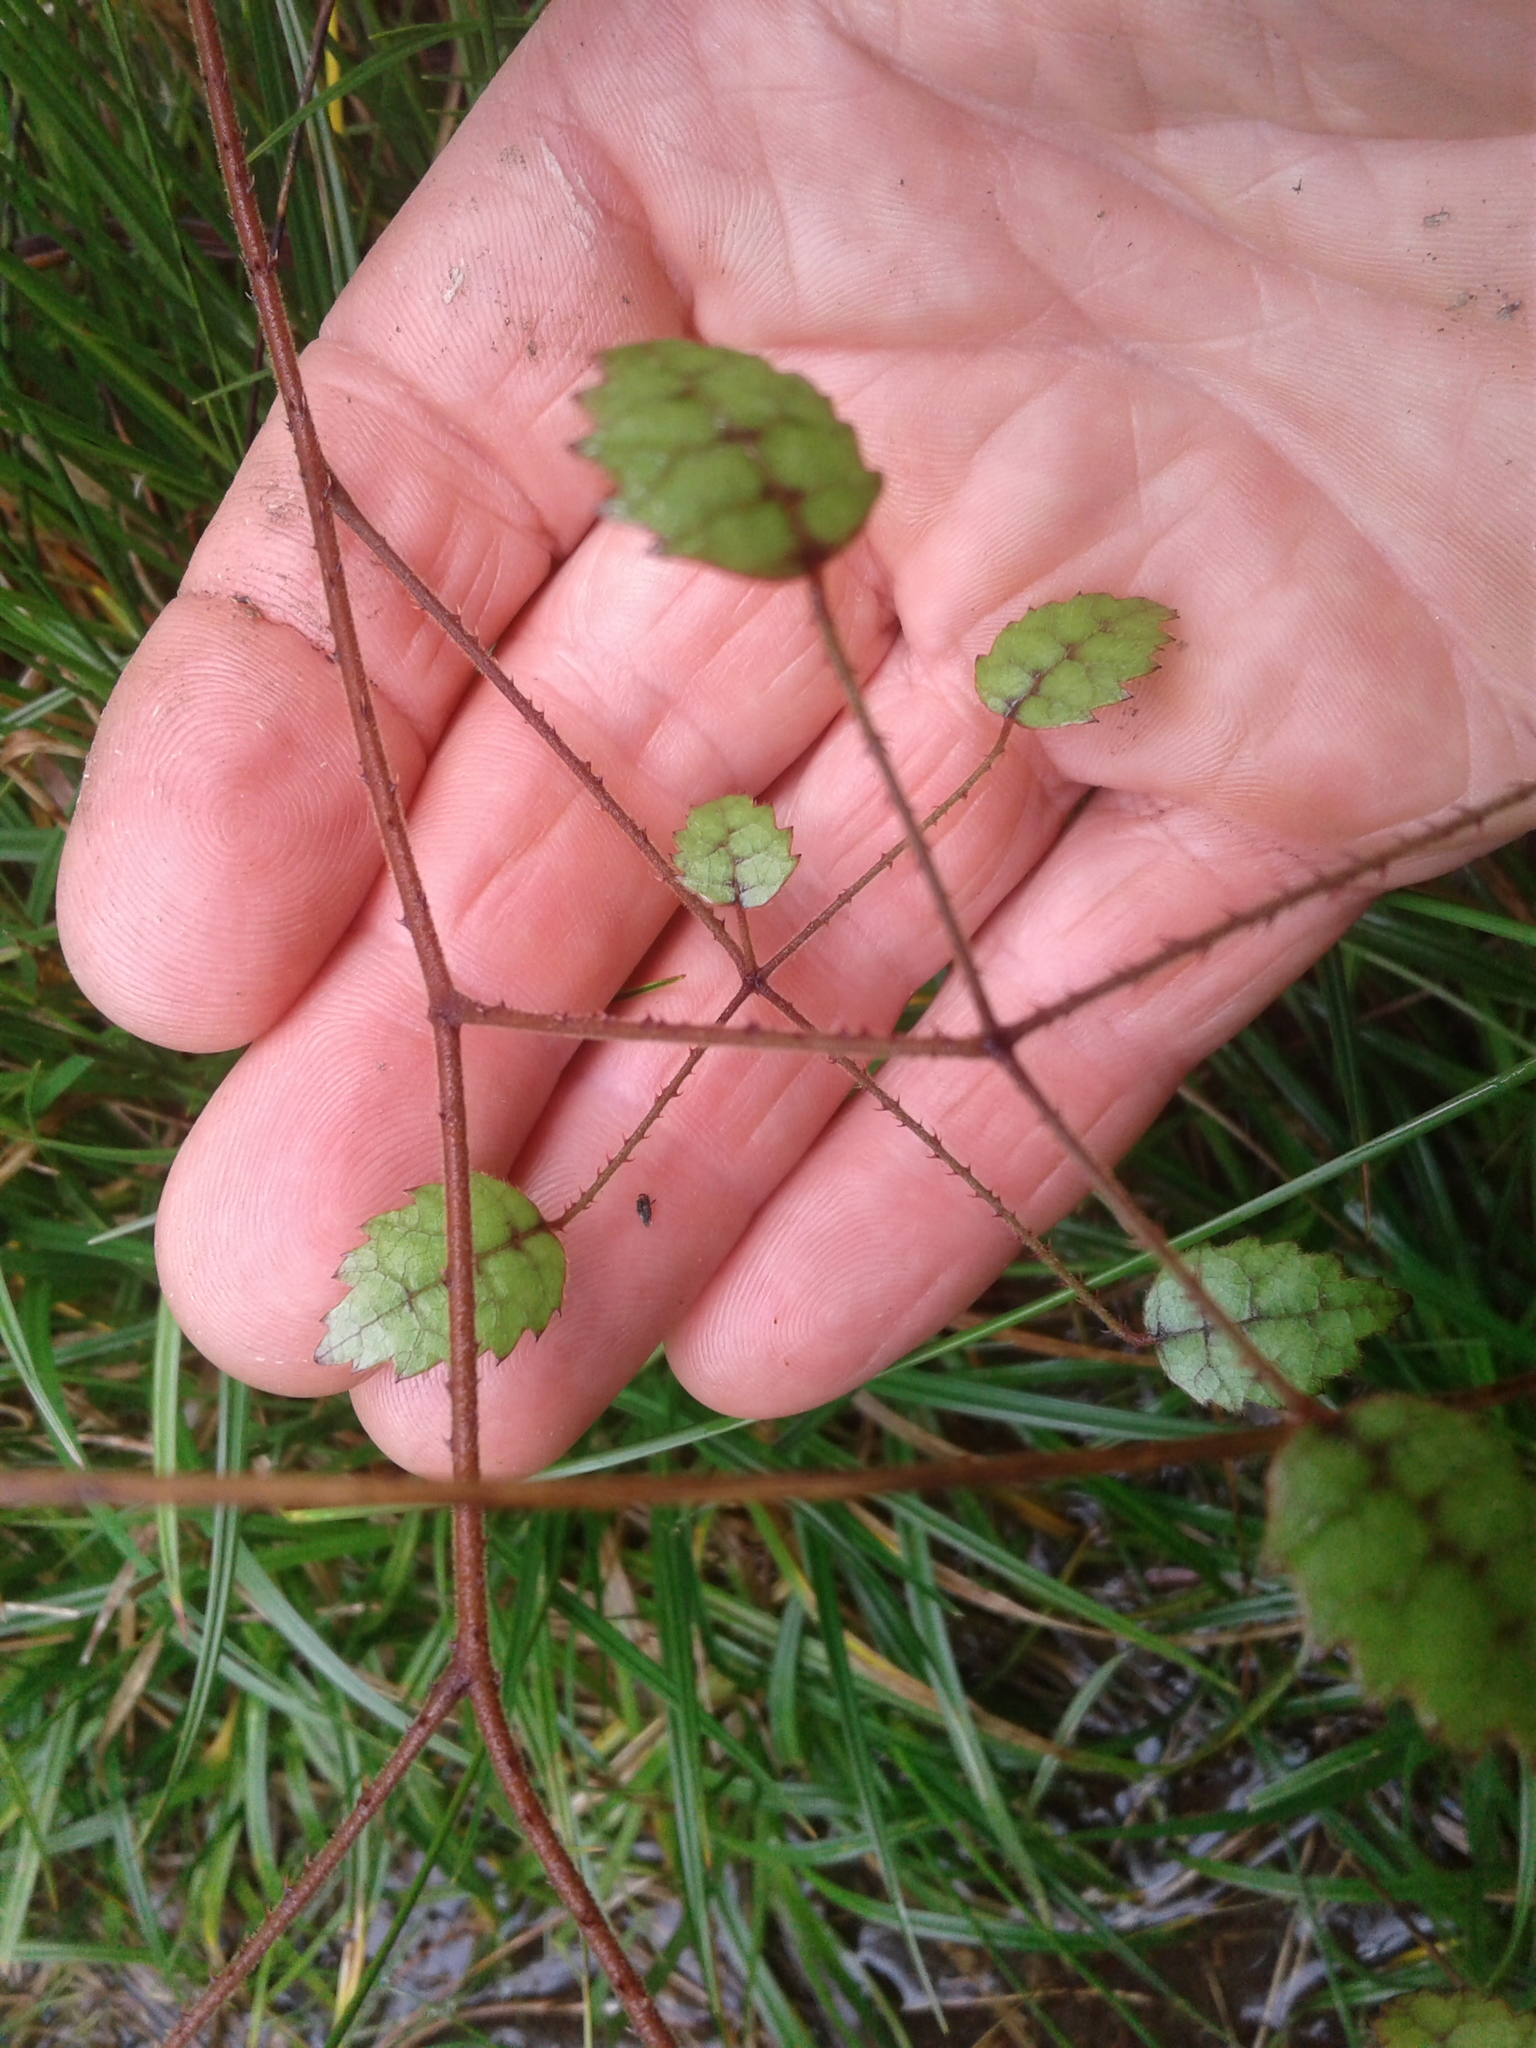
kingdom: Plantae
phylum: Tracheophyta
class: Magnoliopsida
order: Rosales
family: Rosaceae
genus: Rubus
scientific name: Rubus australis
